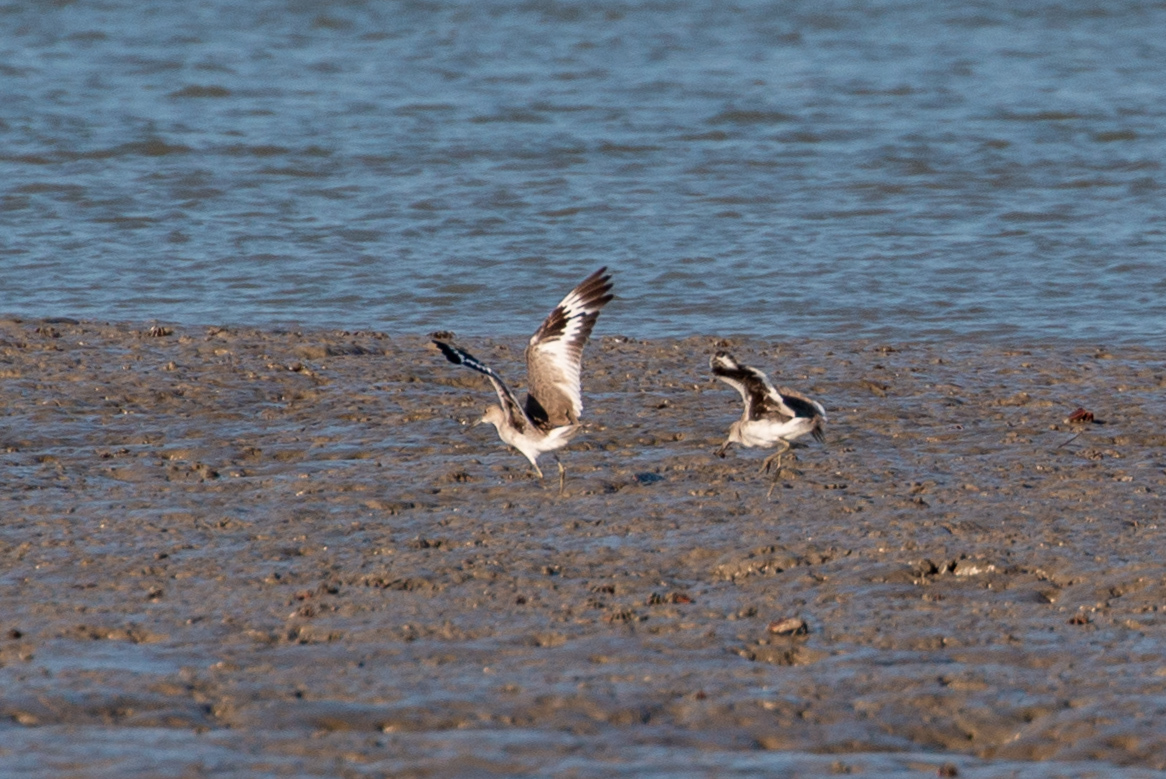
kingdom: Animalia
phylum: Chordata
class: Aves
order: Charadriiformes
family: Scolopacidae
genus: Tringa
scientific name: Tringa semipalmata
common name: Willet
